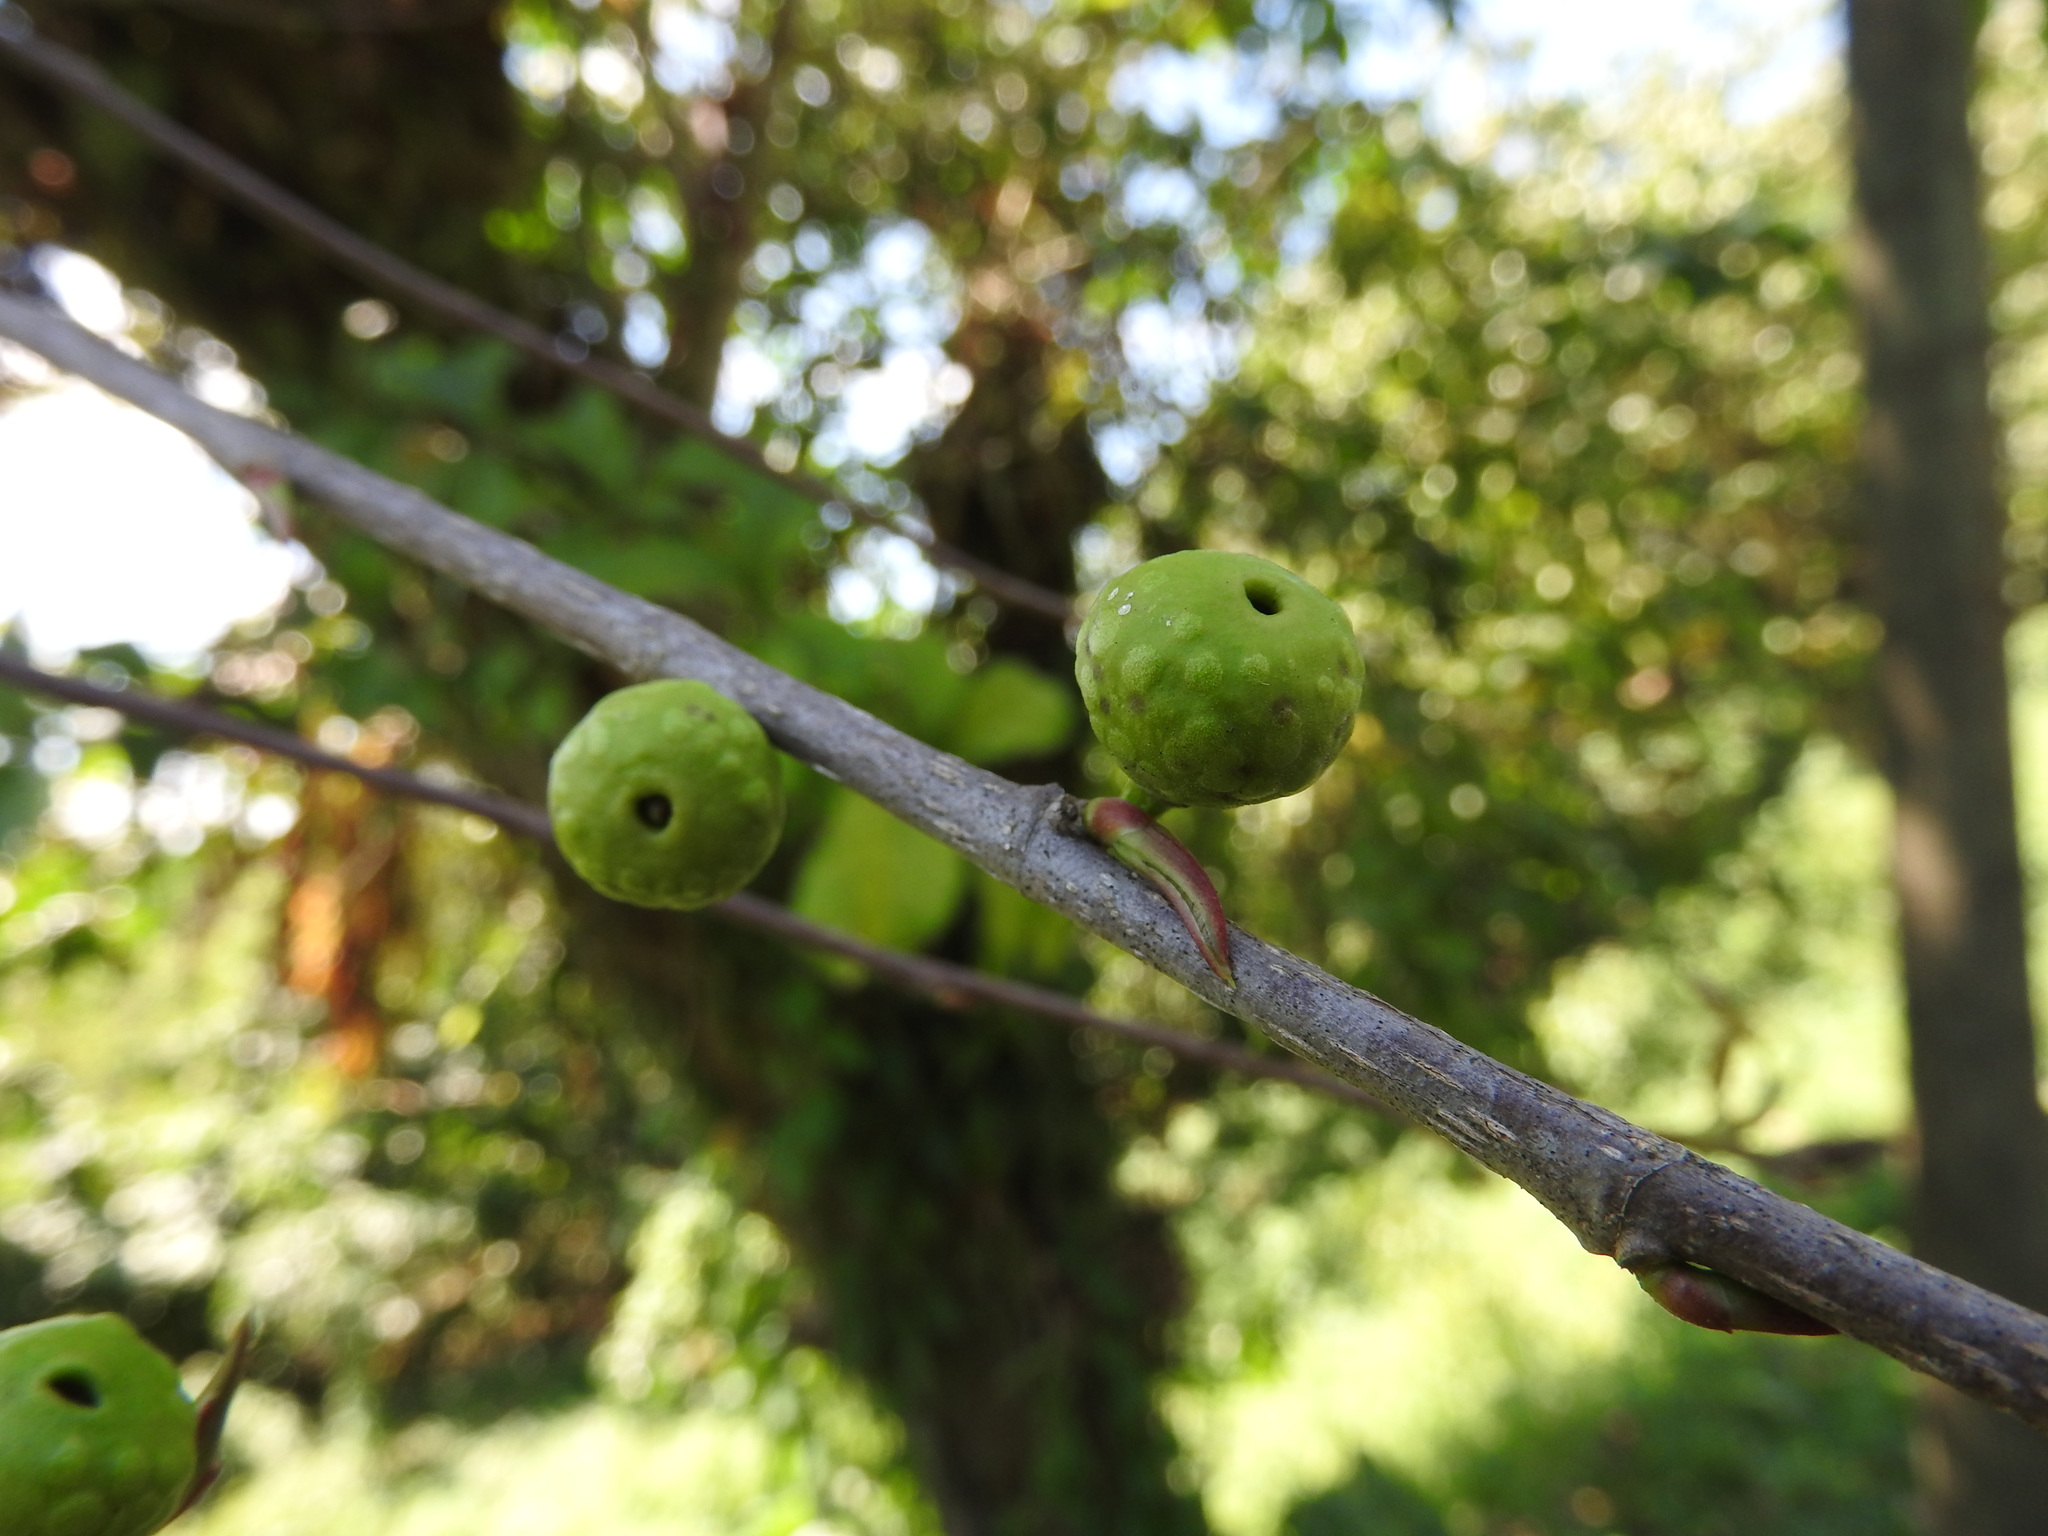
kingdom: Plantae
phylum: Tracheophyta
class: Magnoliopsida
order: Rosales
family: Moraceae
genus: Ficus
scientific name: Ficus pertusa
